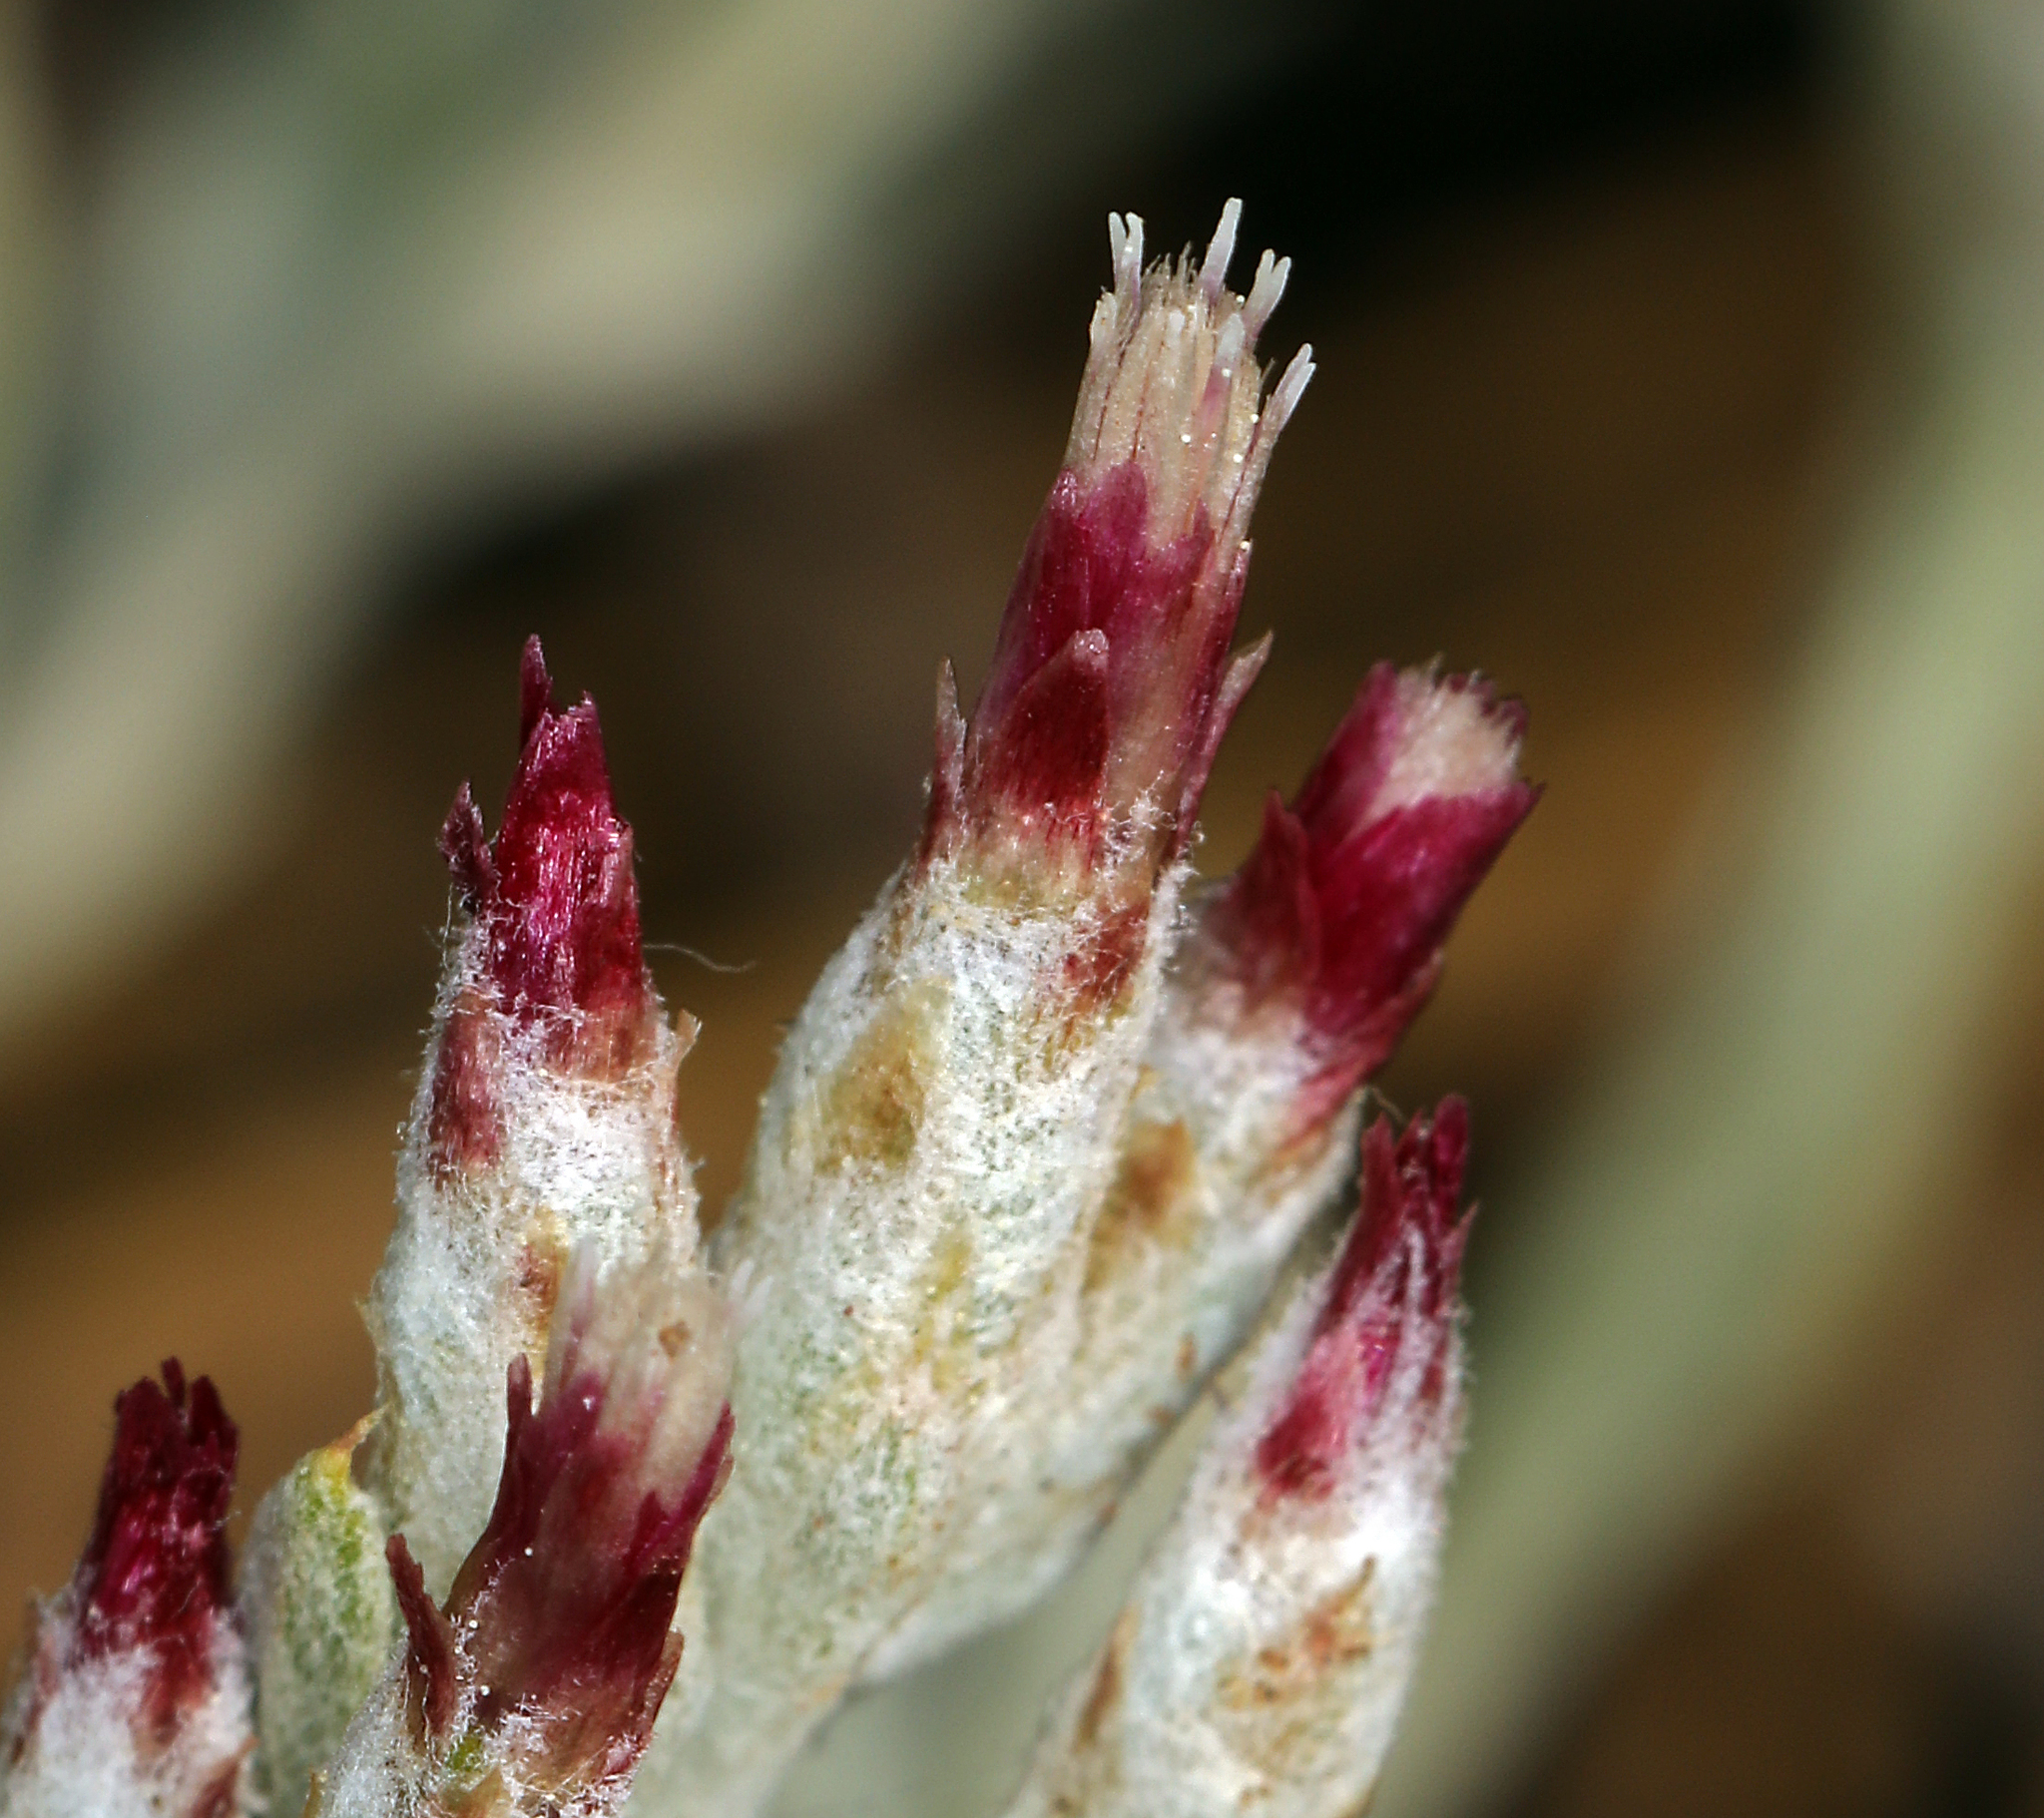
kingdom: Plantae
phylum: Tracheophyta
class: Magnoliopsida
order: Asterales
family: Asteraceae
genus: Antennaria
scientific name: Antennaria geyeri
